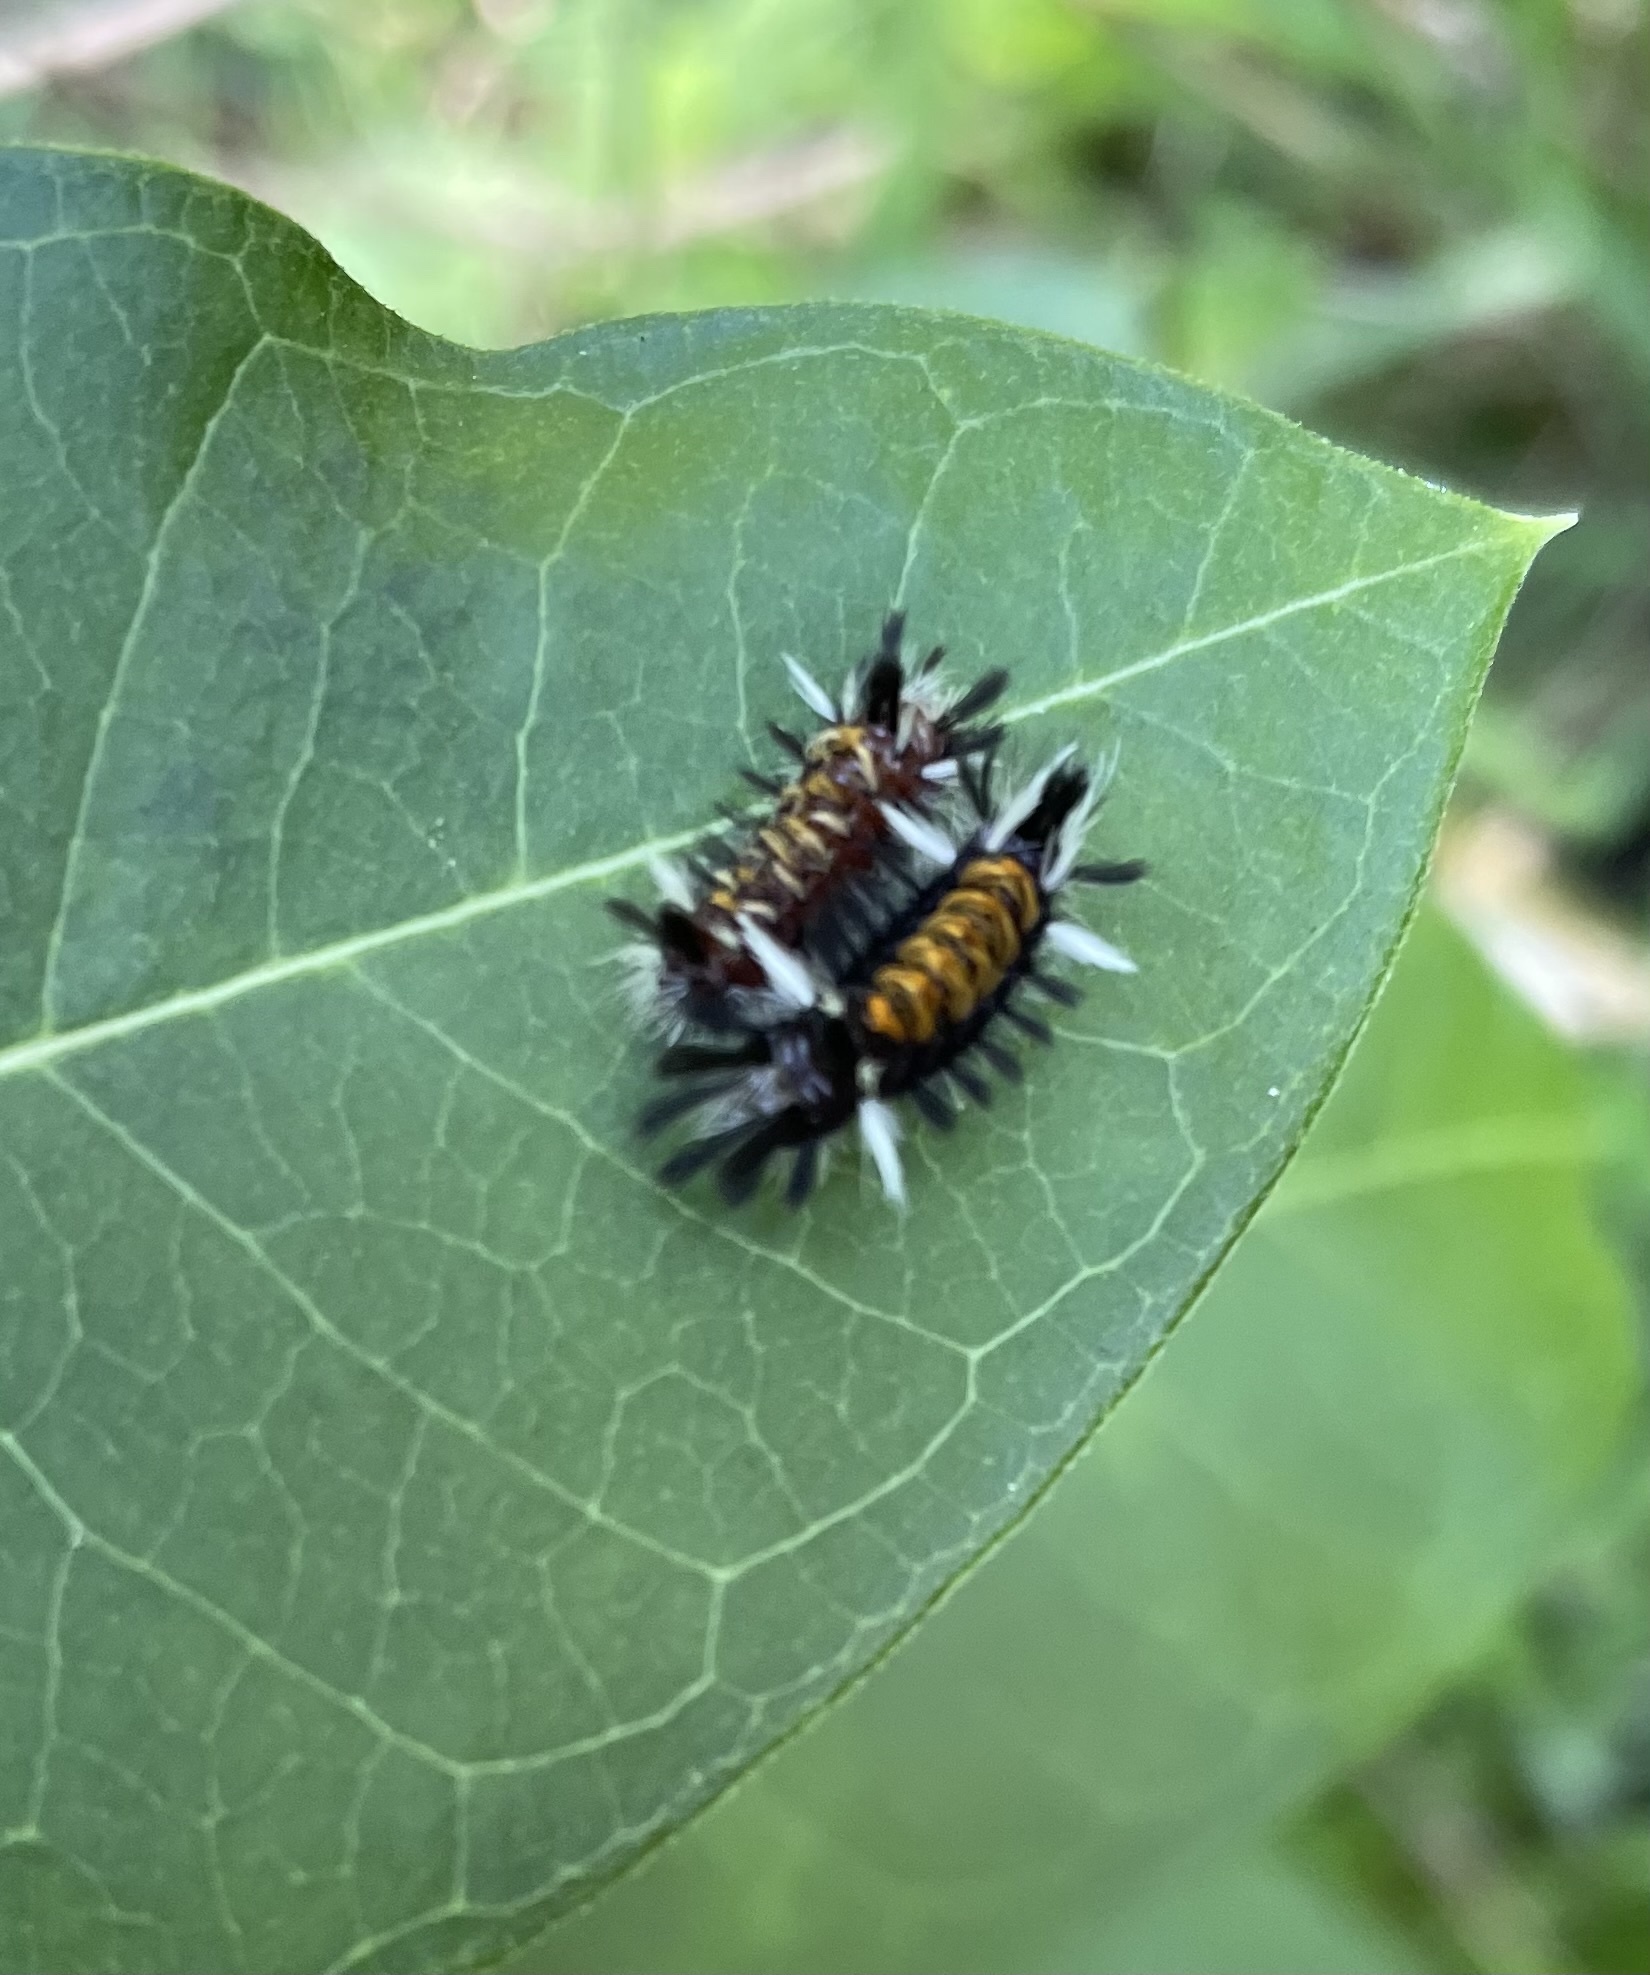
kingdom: Animalia
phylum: Arthropoda
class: Insecta
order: Lepidoptera
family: Erebidae
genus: Euchaetes
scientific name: Euchaetes egle
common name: Milkweed tussock moth
